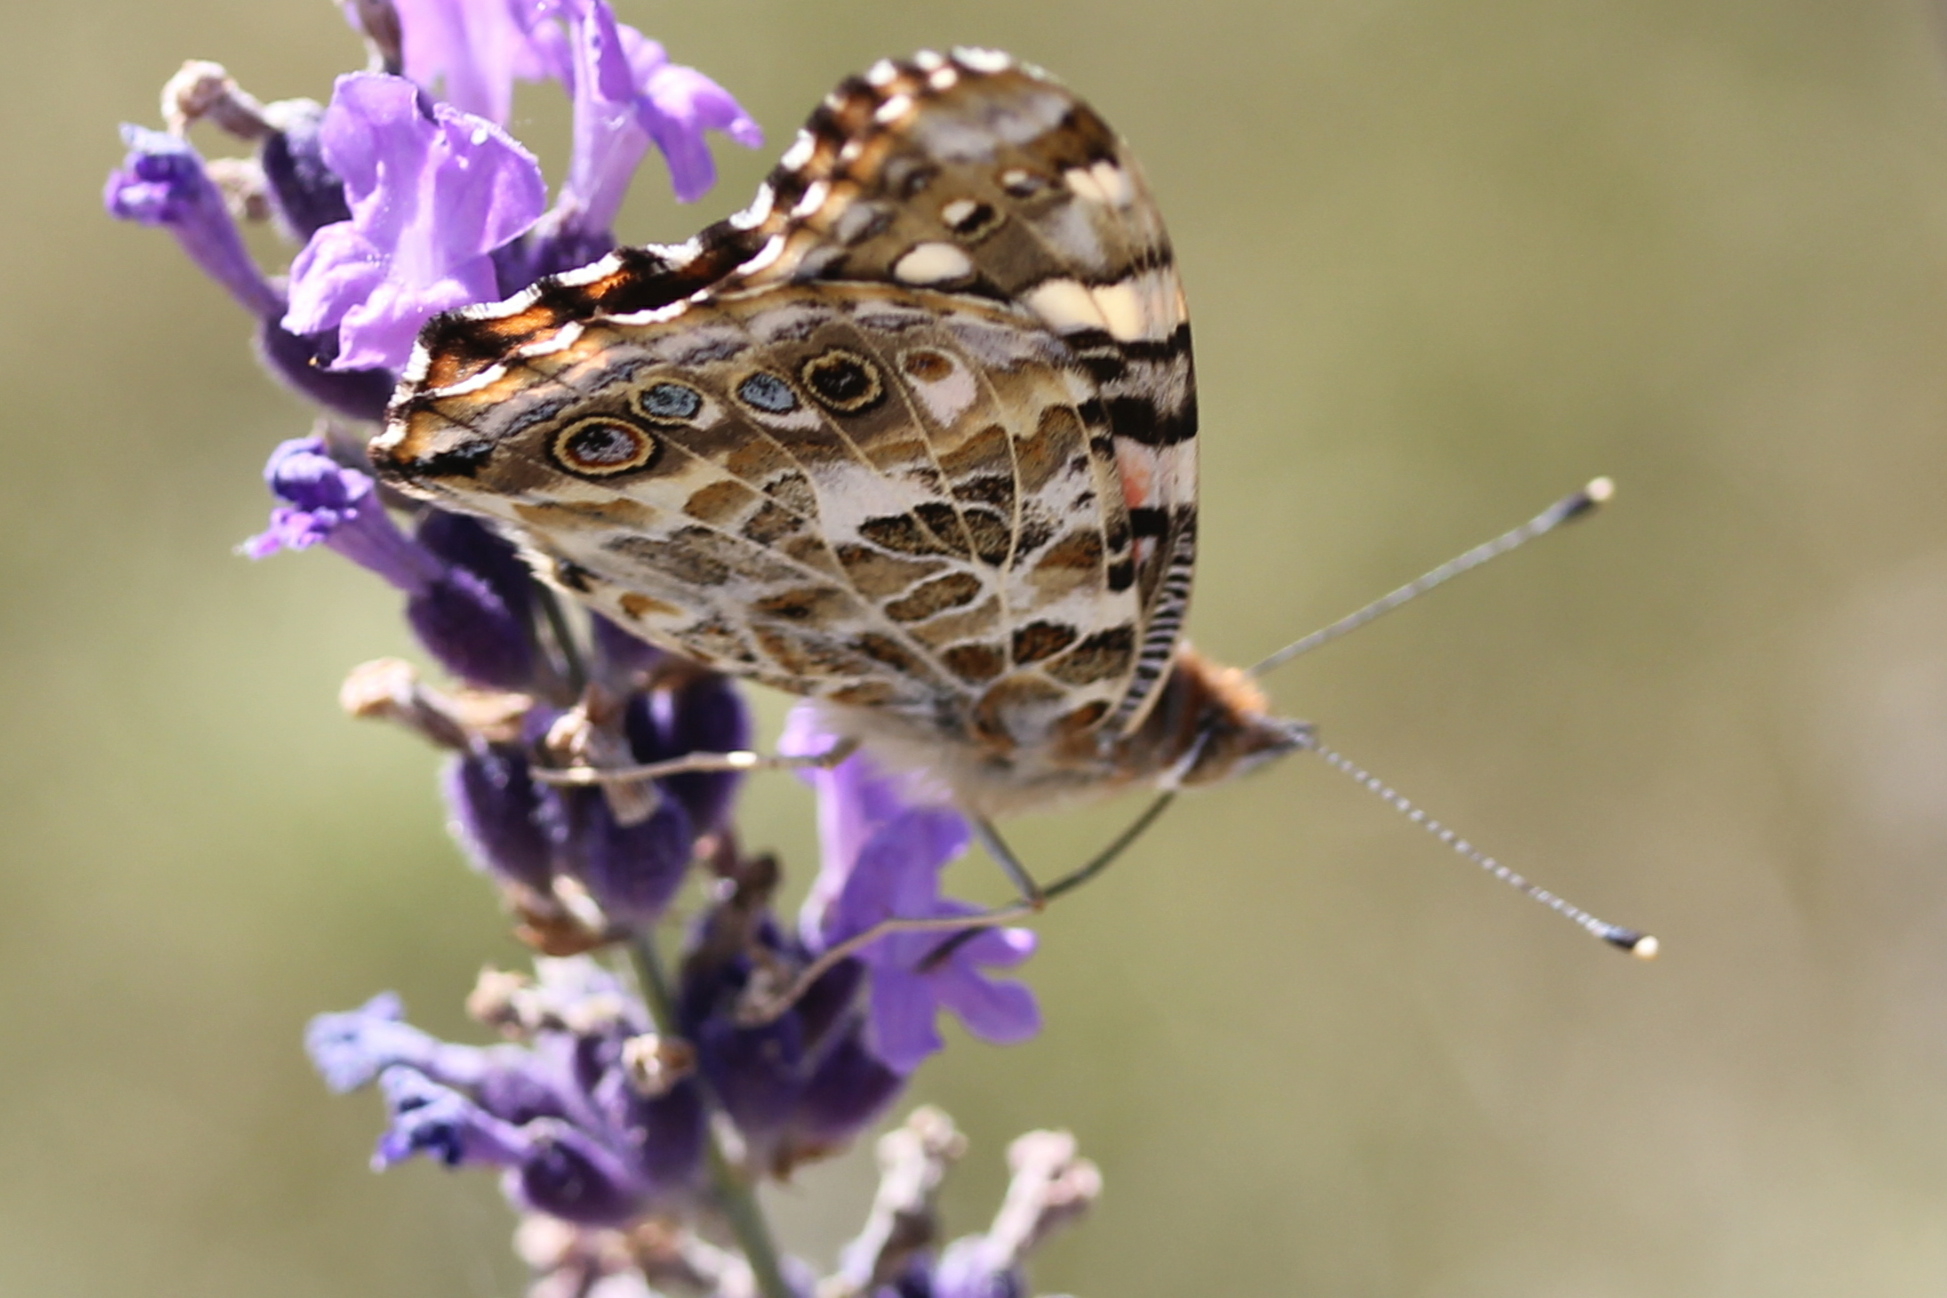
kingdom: Animalia
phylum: Arthropoda
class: Insecta
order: Lepidoptera
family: Nymphalidae
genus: Vanessa
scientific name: Vanessa cardui
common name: Painted lady
